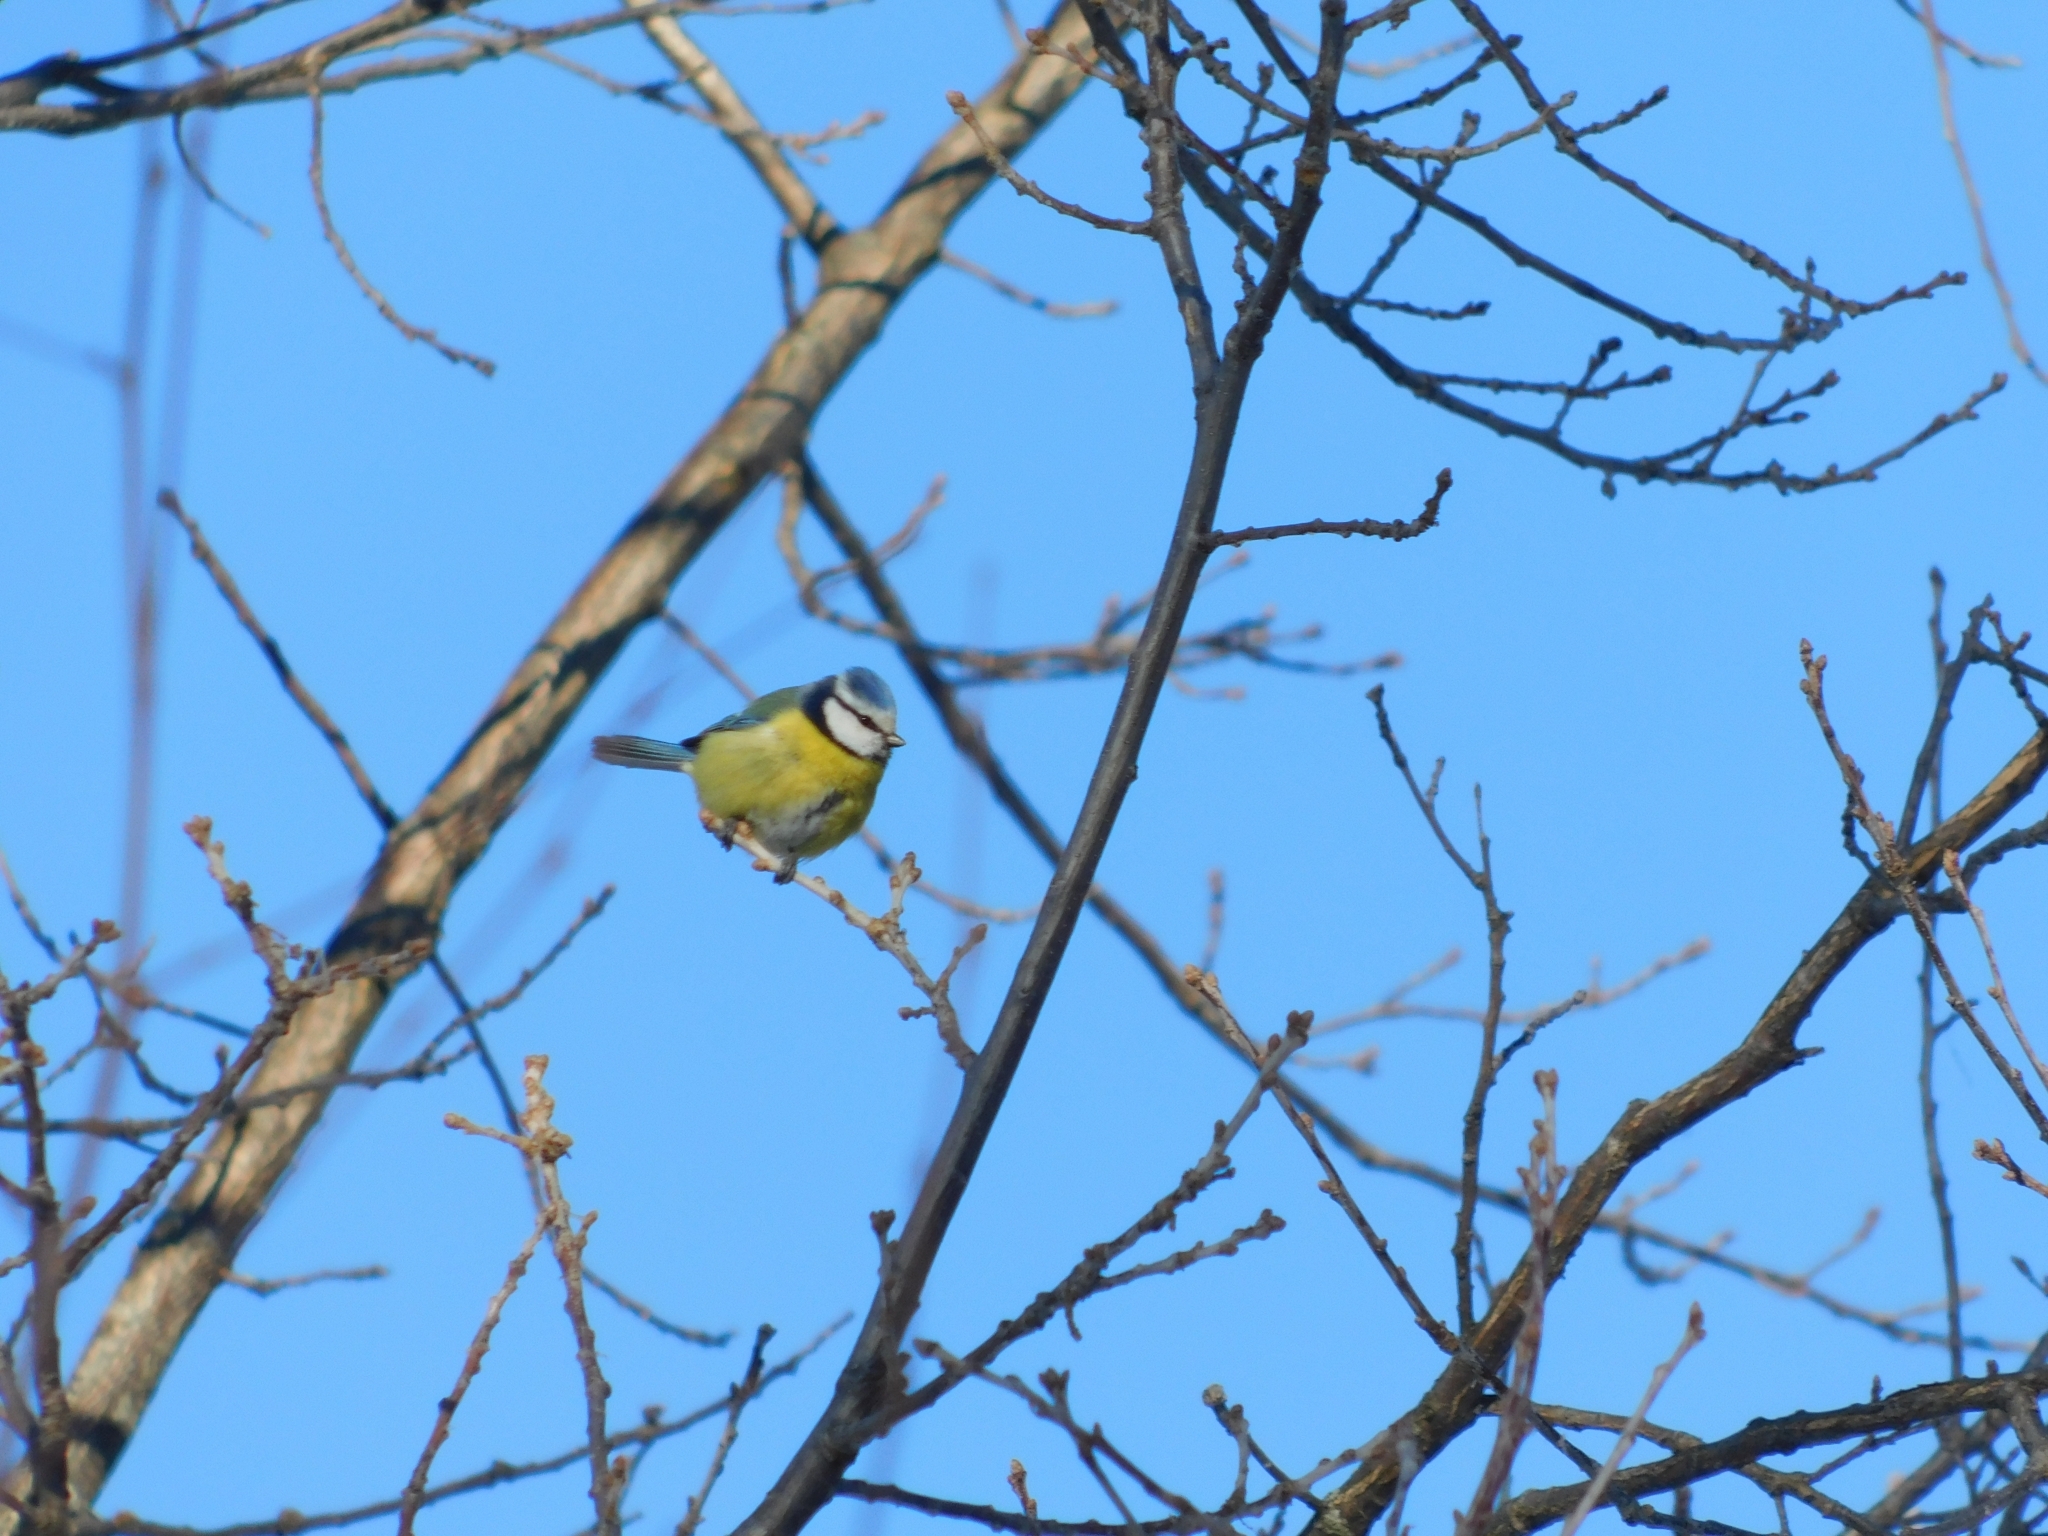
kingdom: Animalia
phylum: Chordata
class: Aves
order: Passeriformes
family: Paridae
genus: Cyanistes
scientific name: Cyanistes caeruleus
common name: Eurasian blue tit
